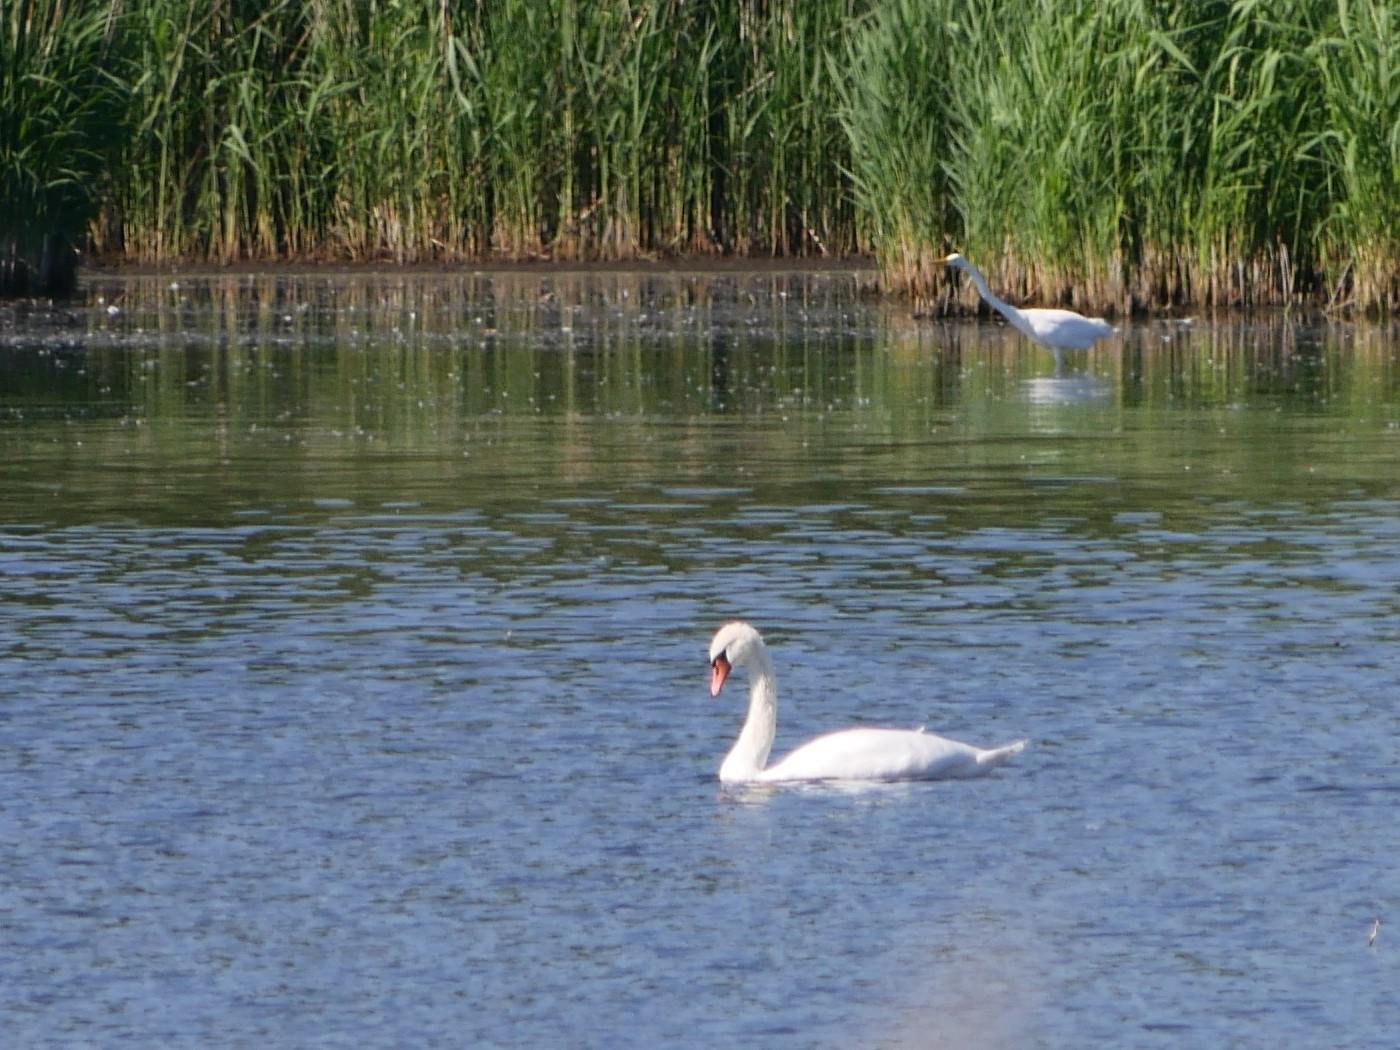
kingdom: Animalia
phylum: Chordata
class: Aves
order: Anseriformes
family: Anatidae
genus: Cygnus
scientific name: Cygnus olor
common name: Mute swan
